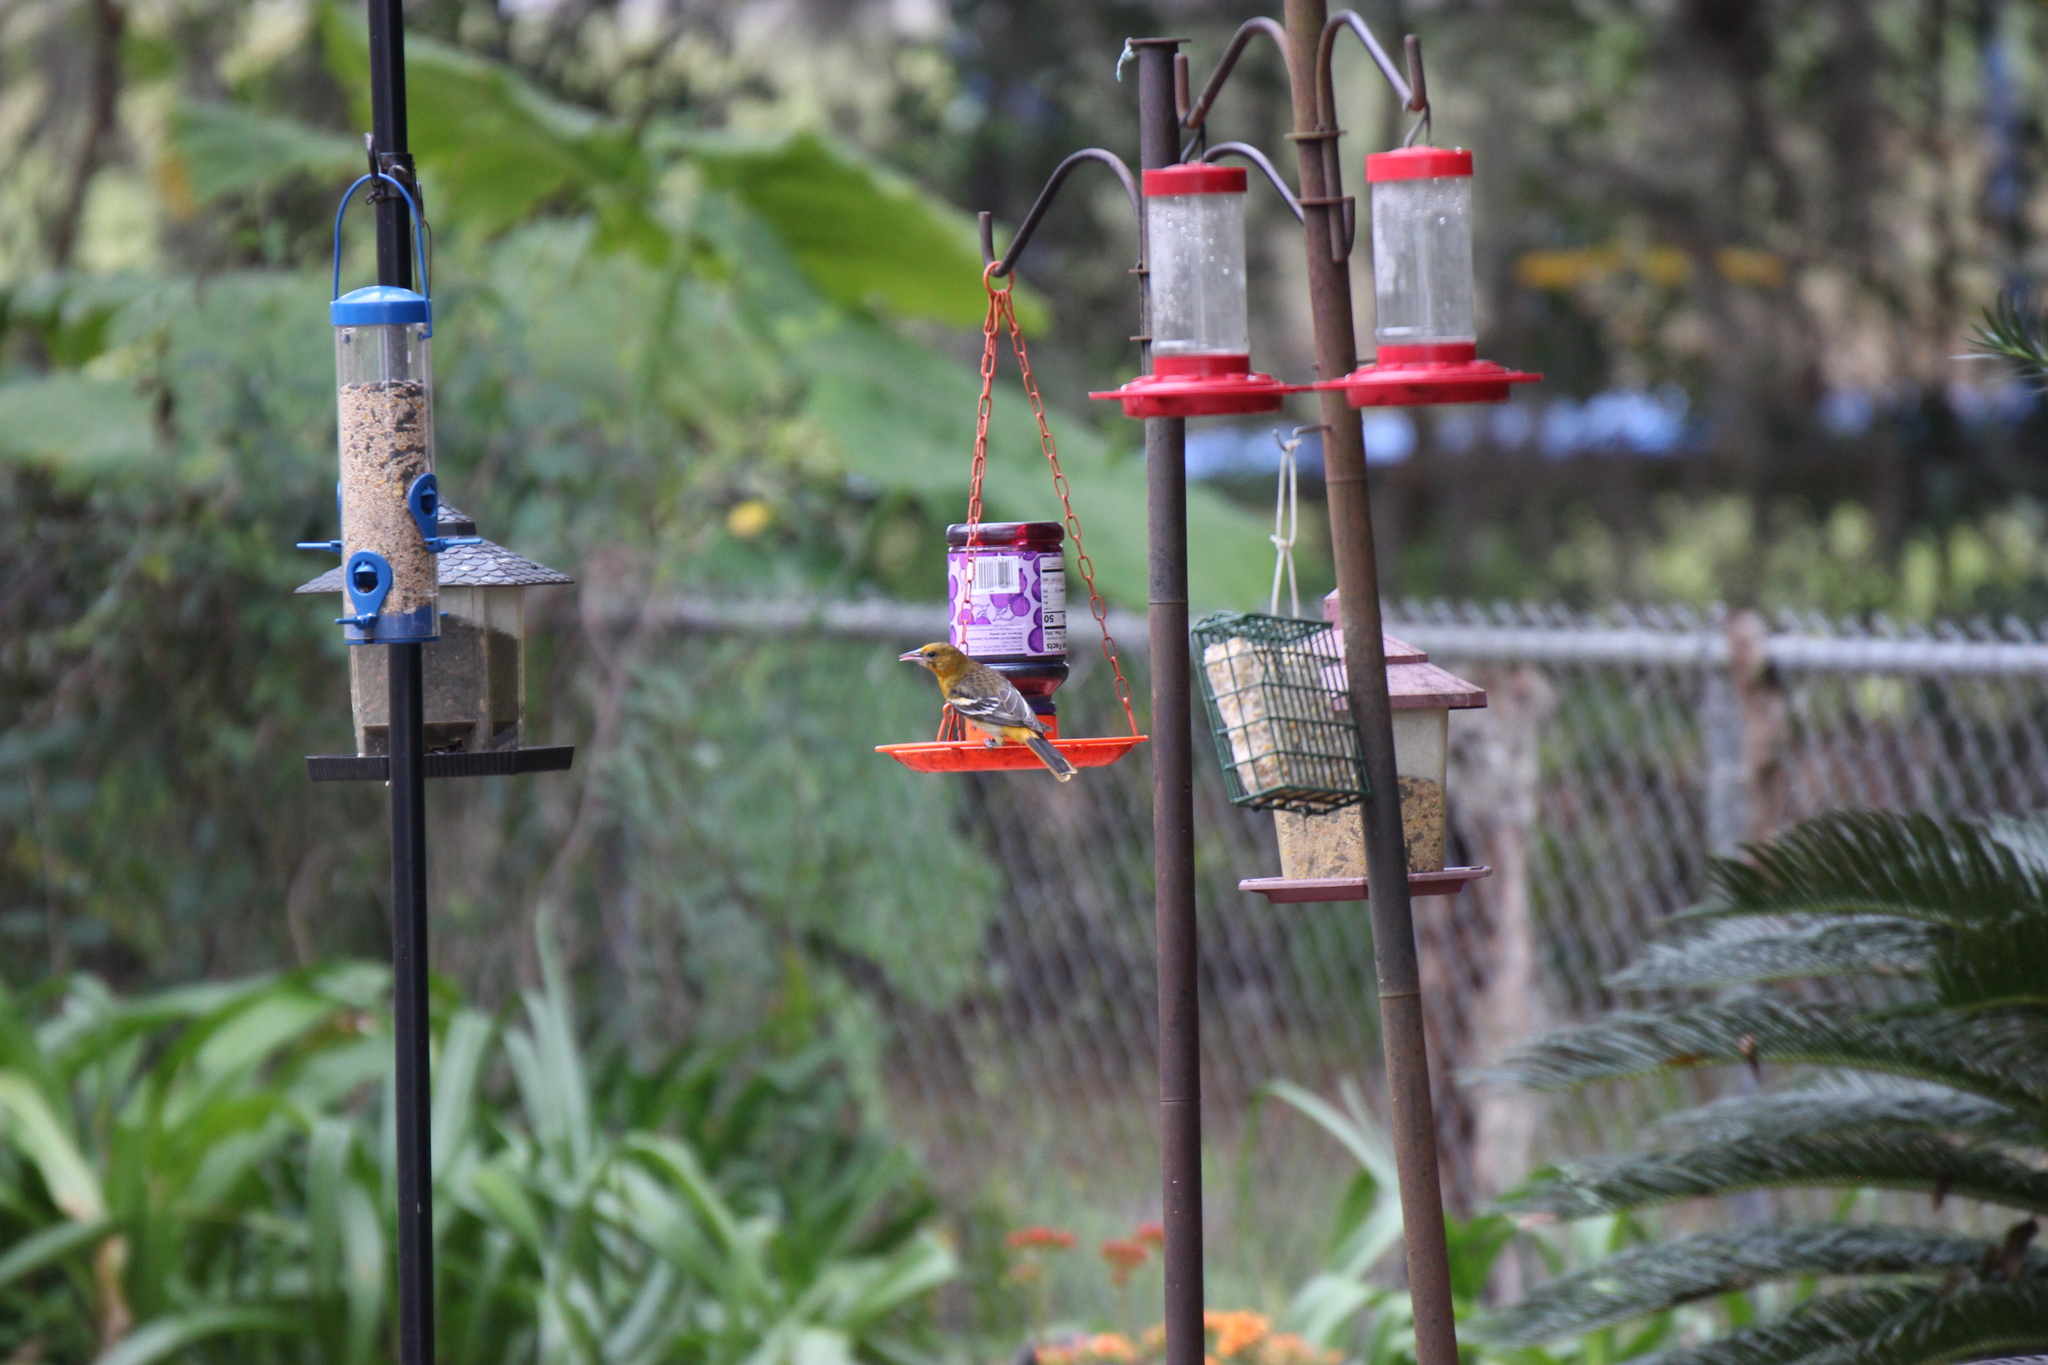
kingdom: Animalia
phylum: Chordata
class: Aves
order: Passeriformes
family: Icteridae
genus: Icterus
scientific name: Icterus galbula
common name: Baltimore oriole
